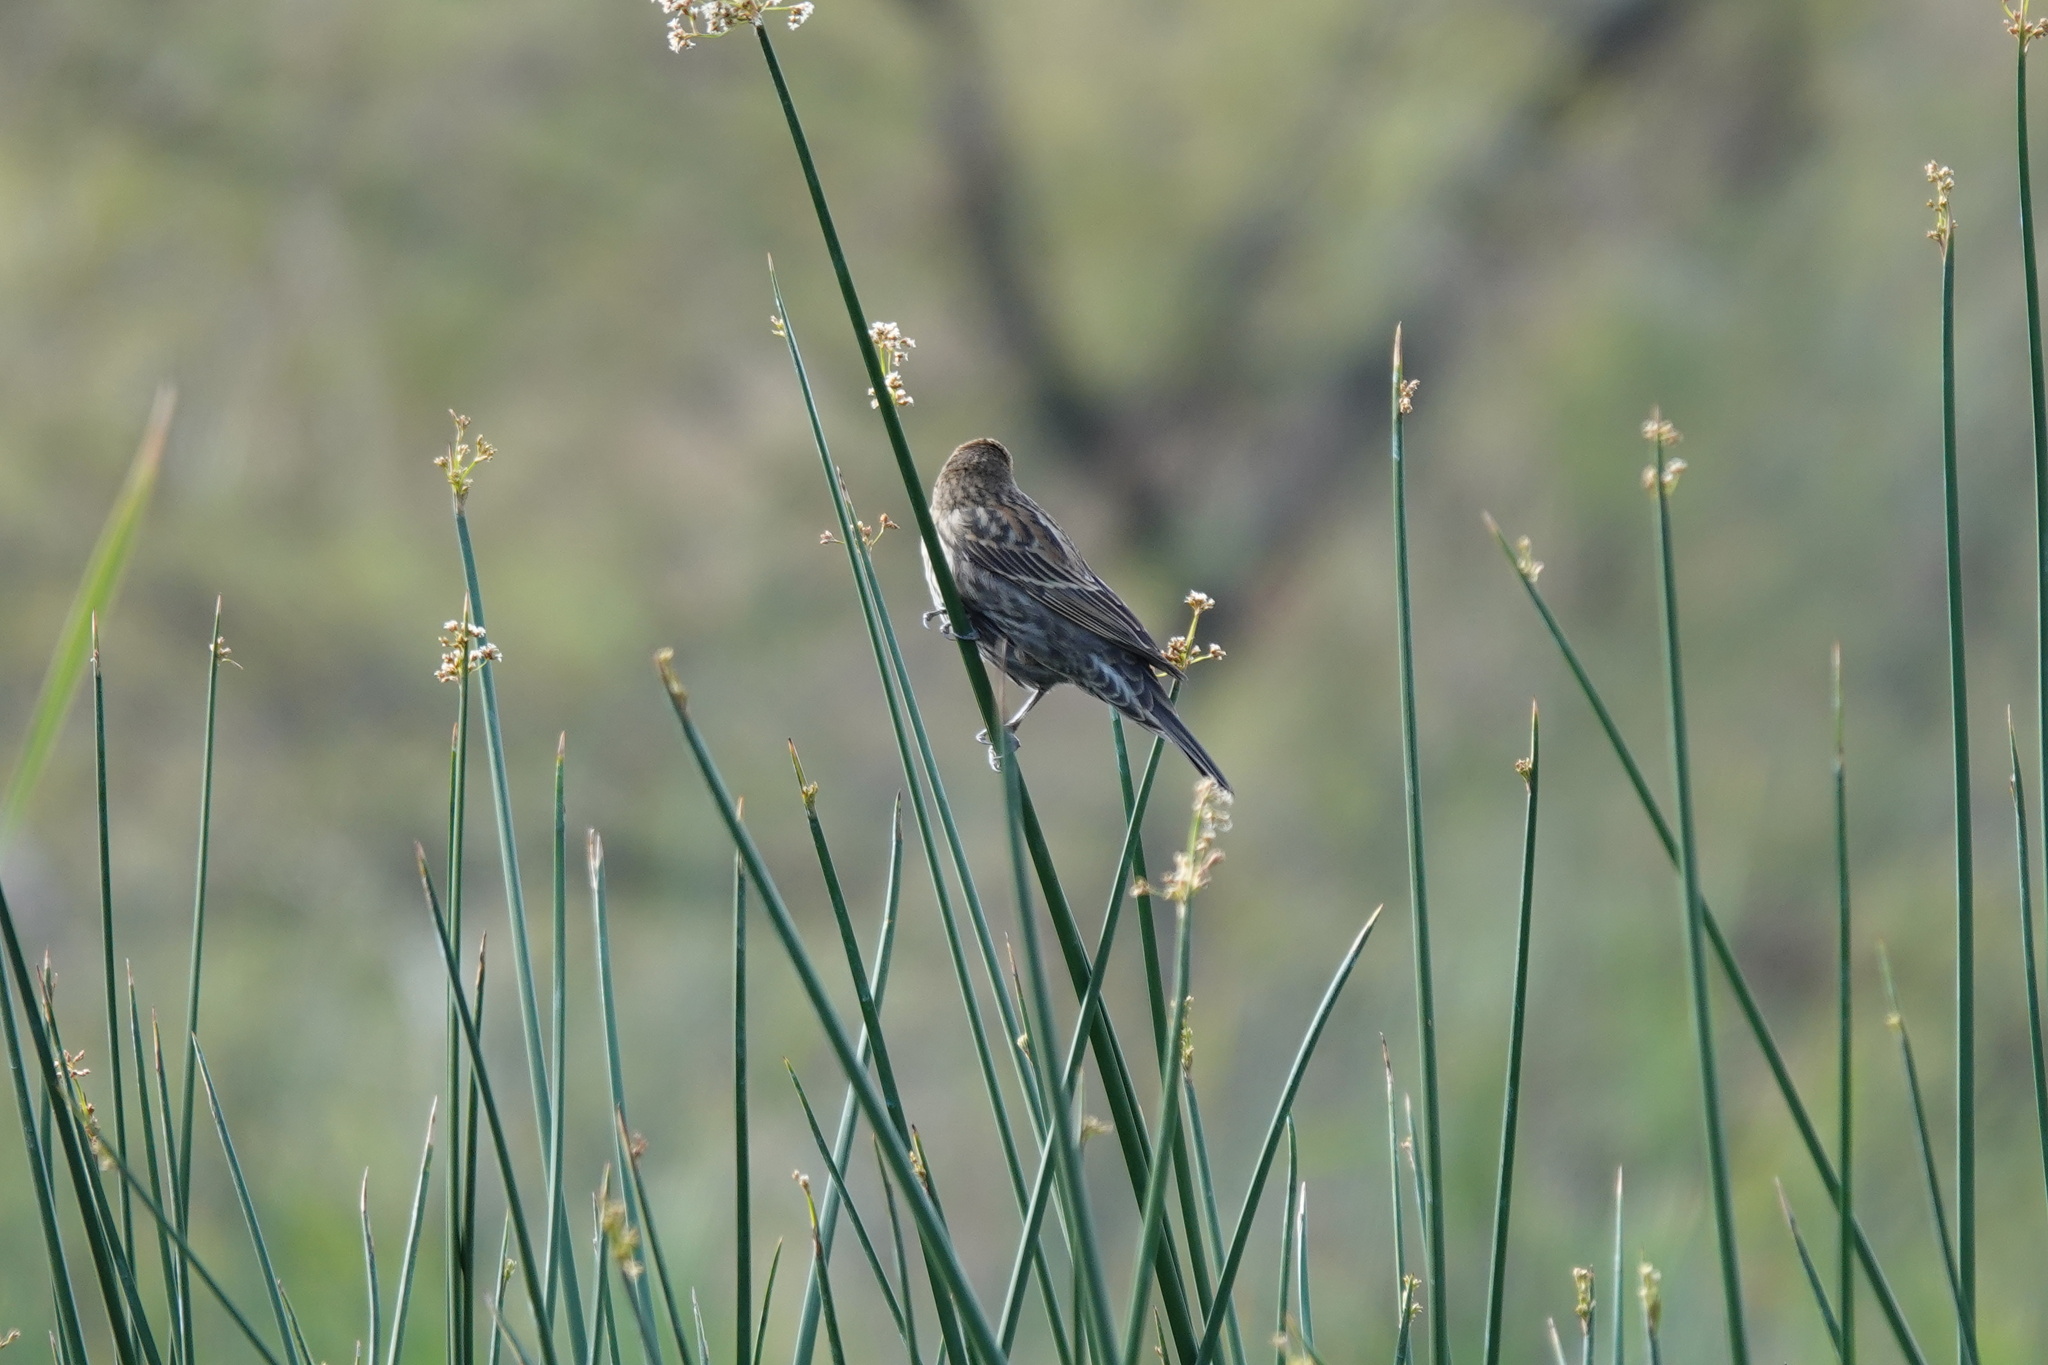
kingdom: Animalia
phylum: Chordata
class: Aves
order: Passeriformes
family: Icteridae
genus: Agelaius
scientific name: Agelaius phoeniceus
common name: Red-winged blackbird
